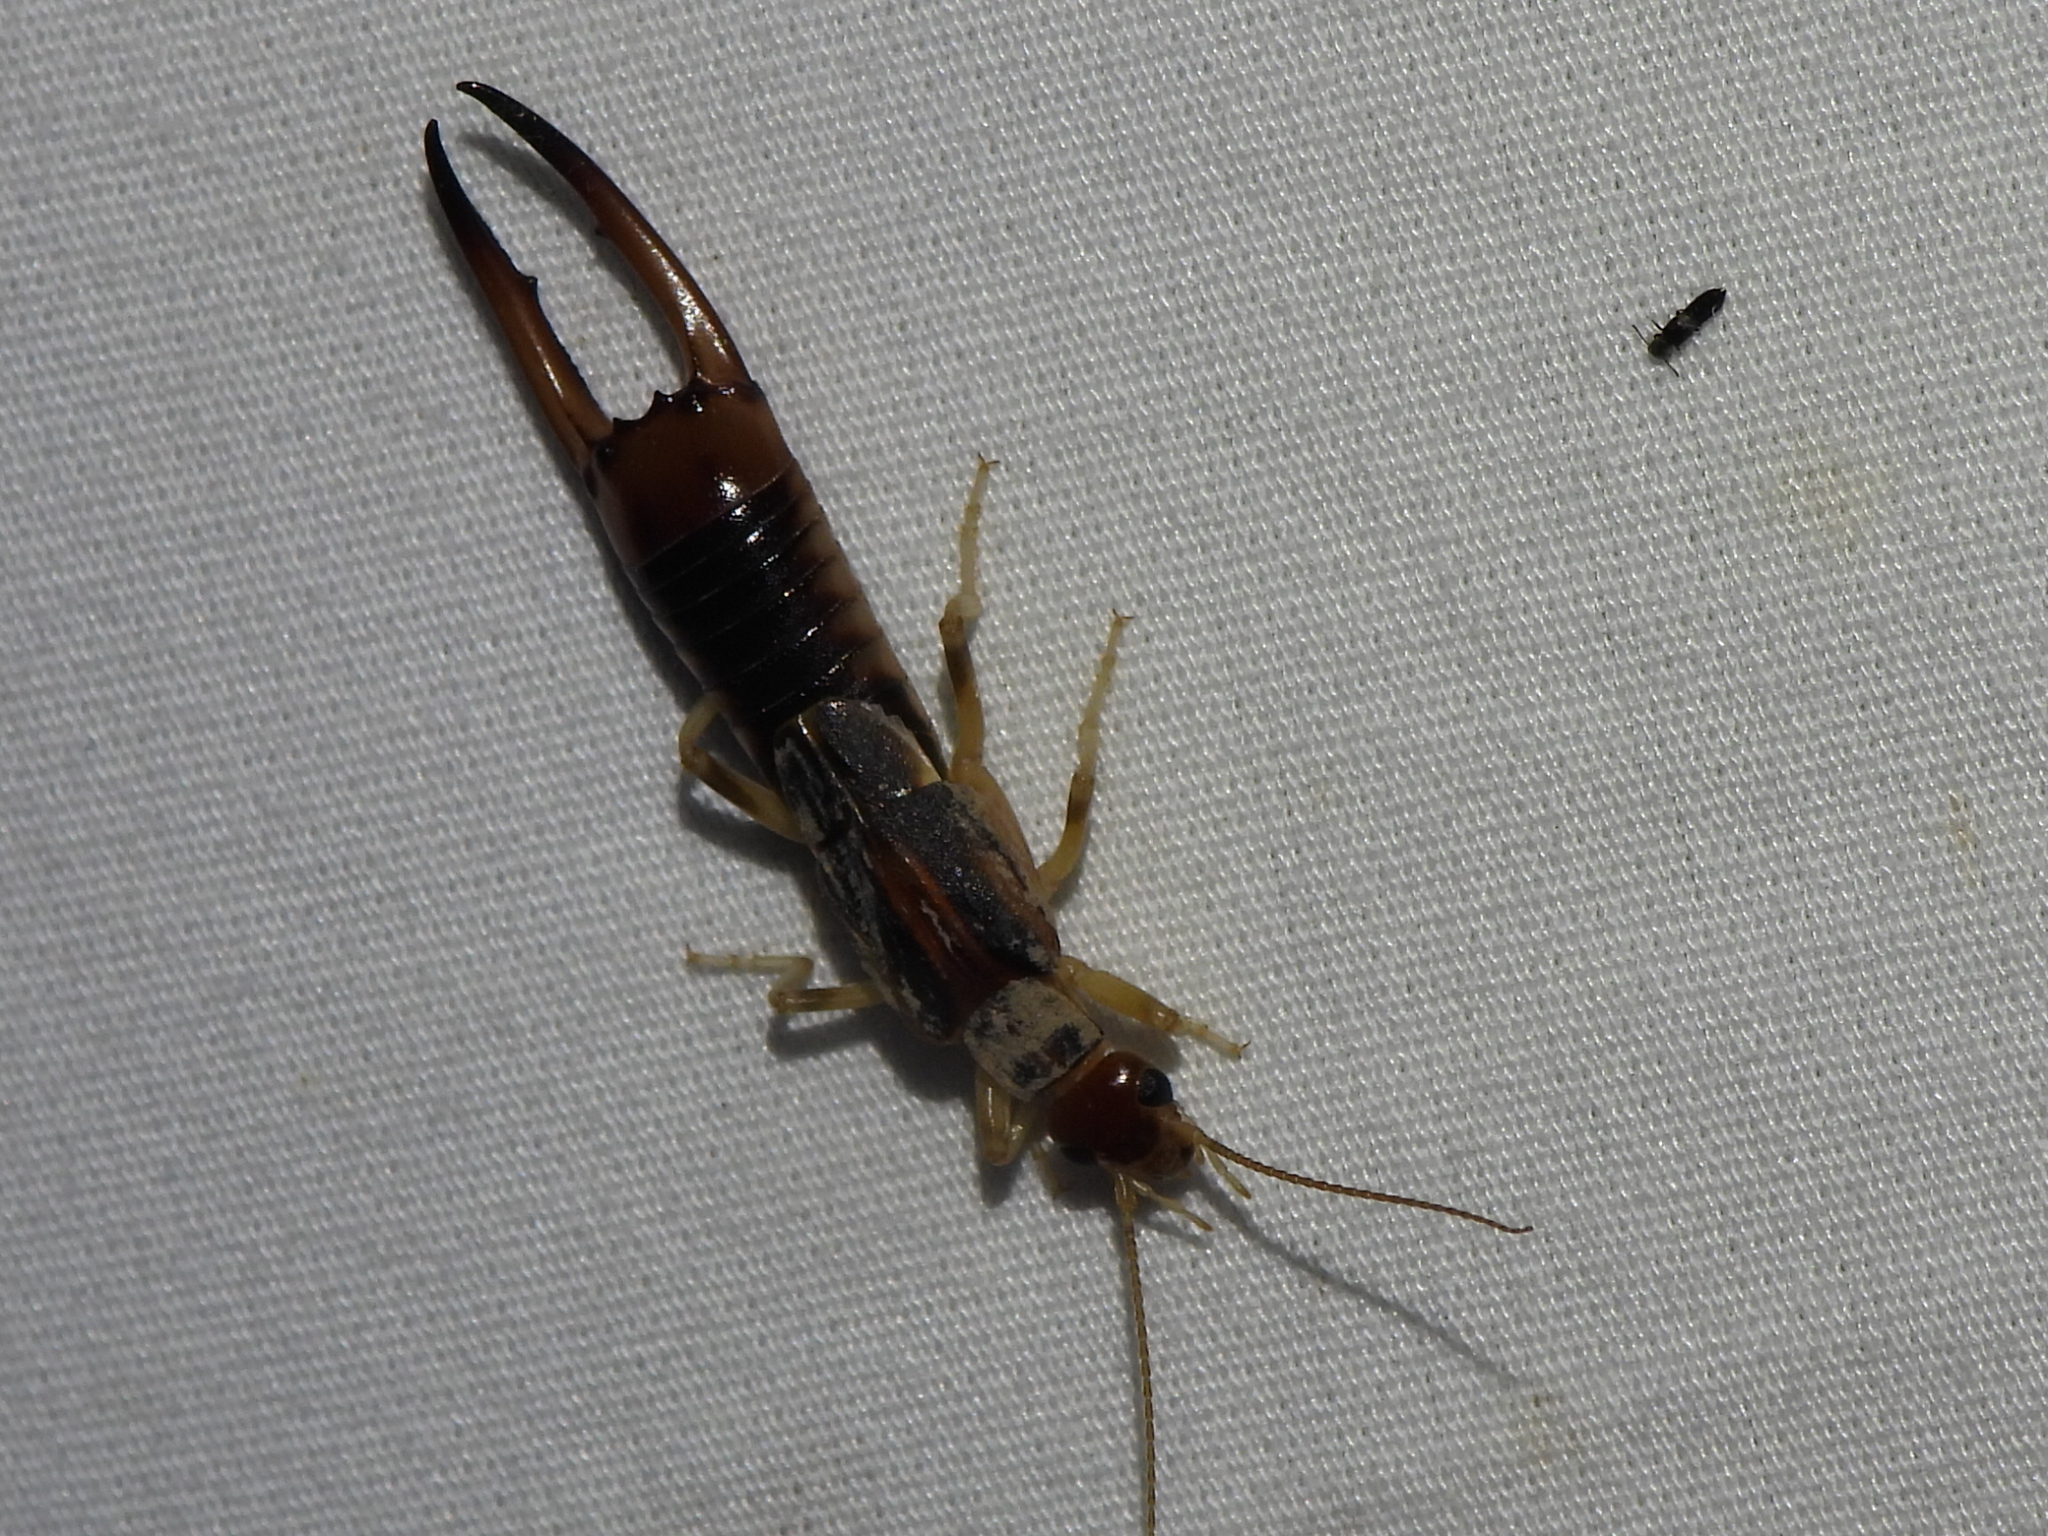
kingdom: Animalia
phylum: Arthropoda
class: Insecta
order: Dermaptera
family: Labiduridae
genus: Labidura
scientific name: Labidura riparia
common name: Striped earwig
